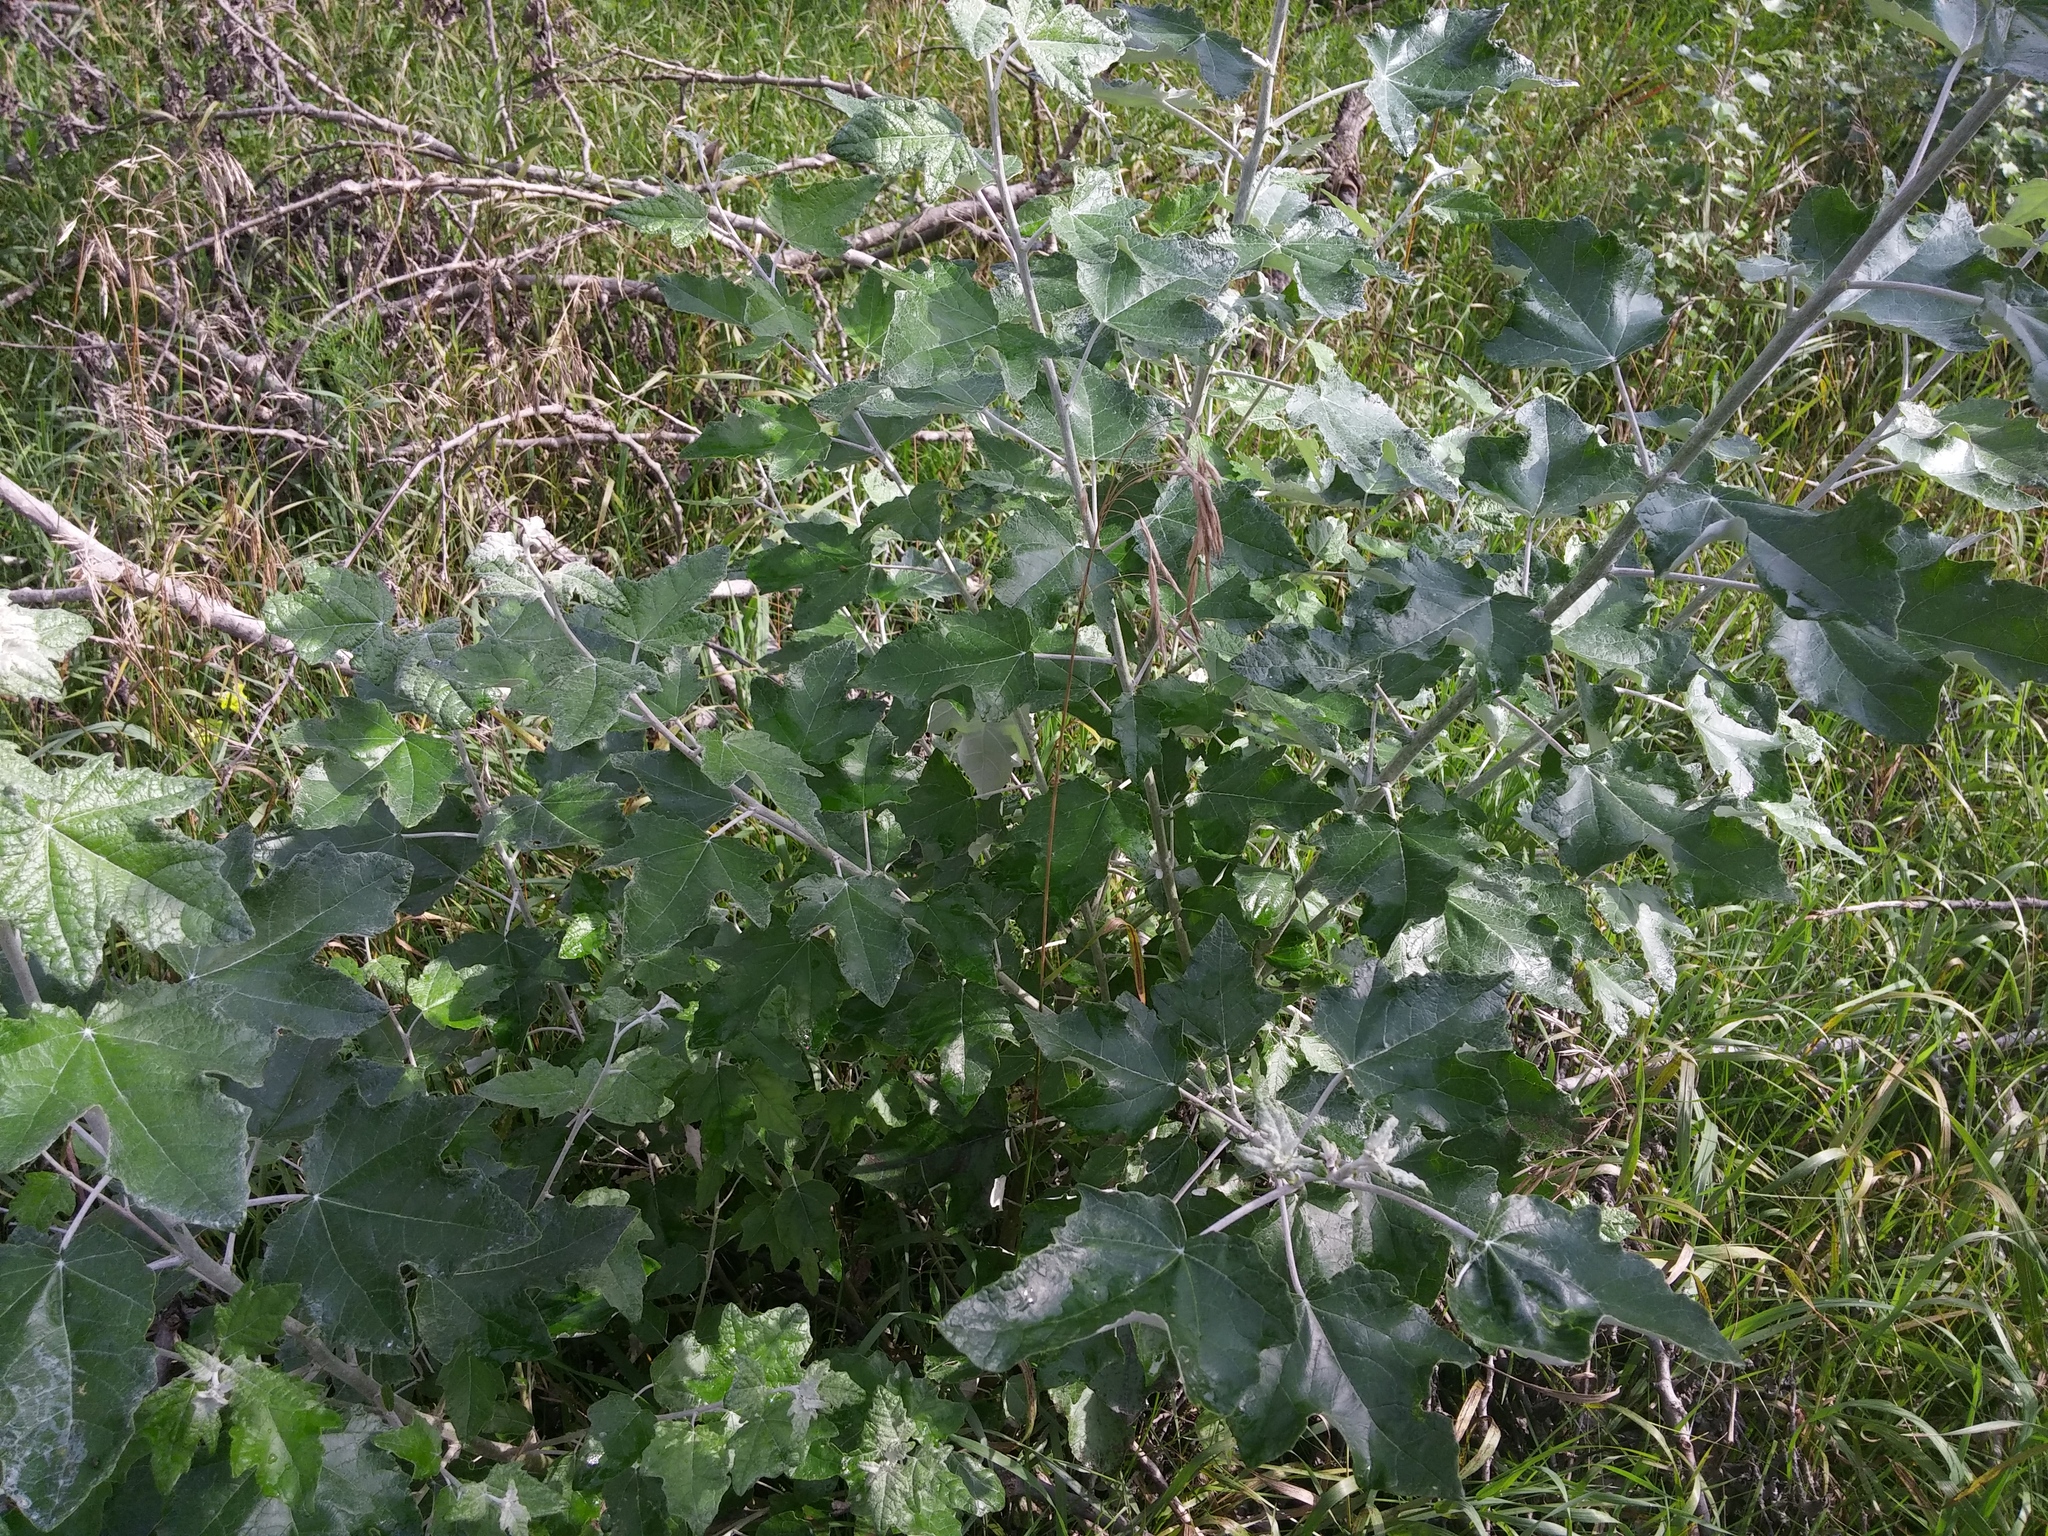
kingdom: Plantae
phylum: Tracheophyta
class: Magnoliopsida
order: Malpighiales
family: Salicaceae
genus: Populus
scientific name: Populus alba
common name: White poplar
